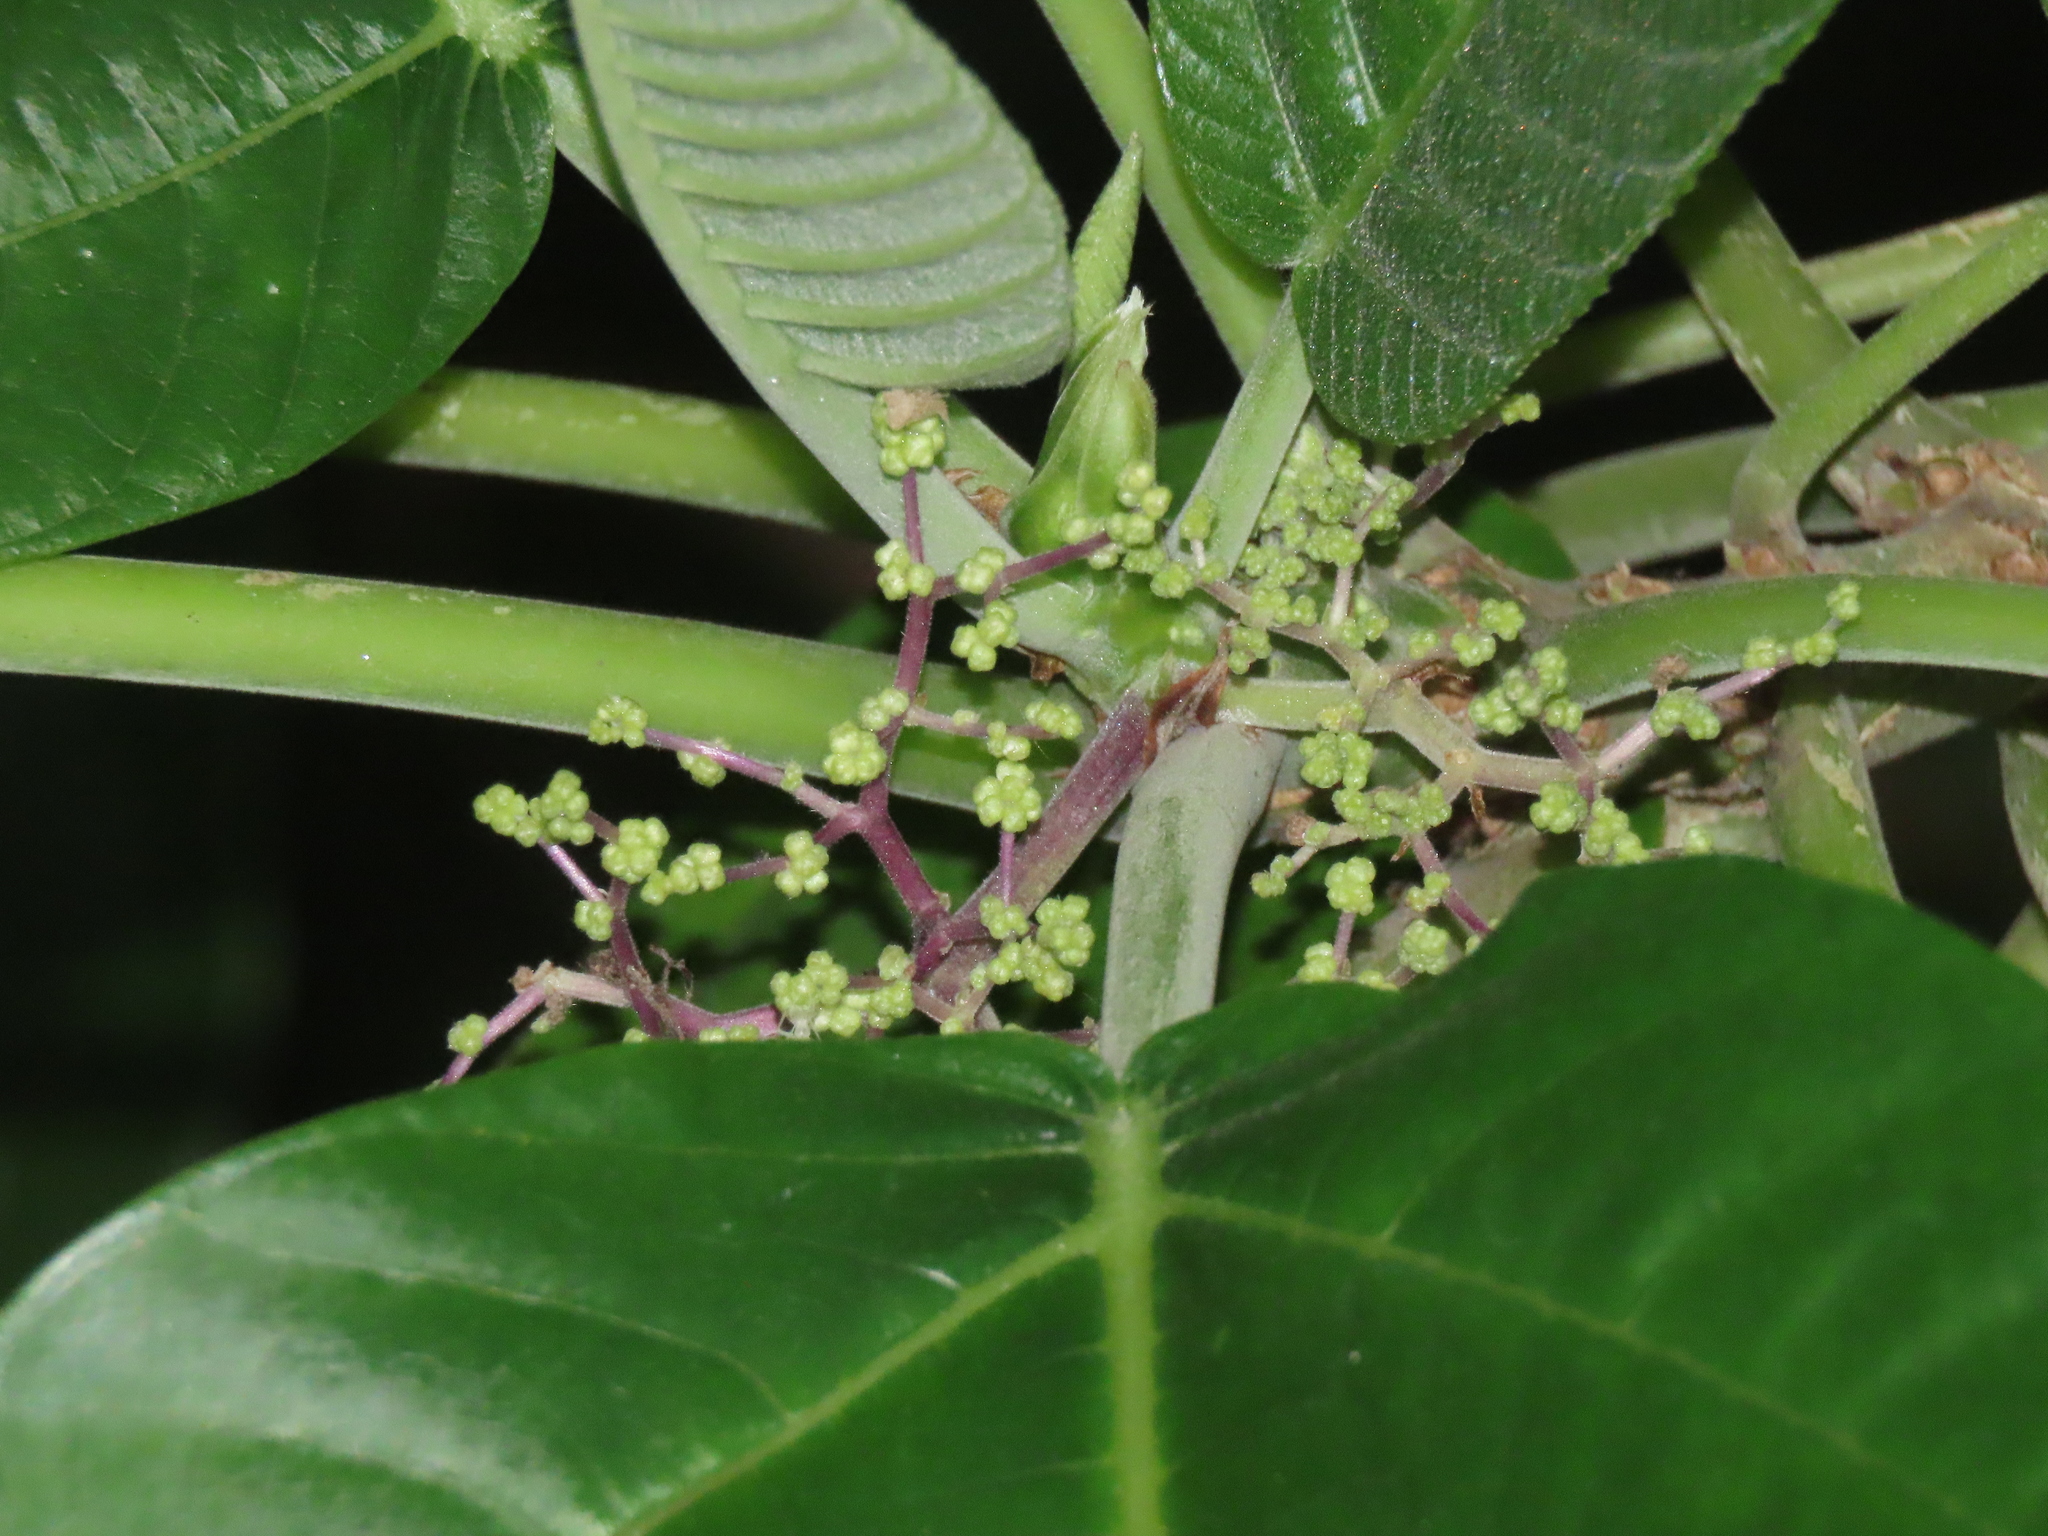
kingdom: Plantae
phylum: Tracheophyta
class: Magnoliopsida
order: Rosales
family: Urticaceae
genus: Dendrocnide
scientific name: Dendrocnide meyeniana
